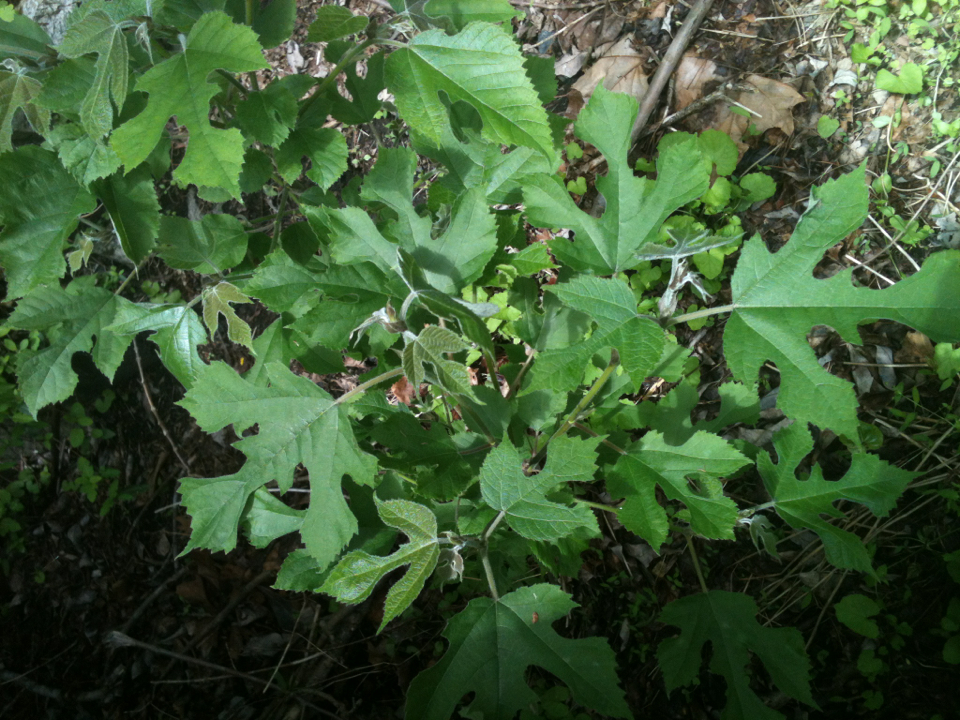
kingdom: Plantae
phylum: Tracheophyta
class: Magnoliopsida
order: Rosales
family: Moraceae
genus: Broussonetia
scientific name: Broussonetia papyrifera
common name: Paper mulberry
